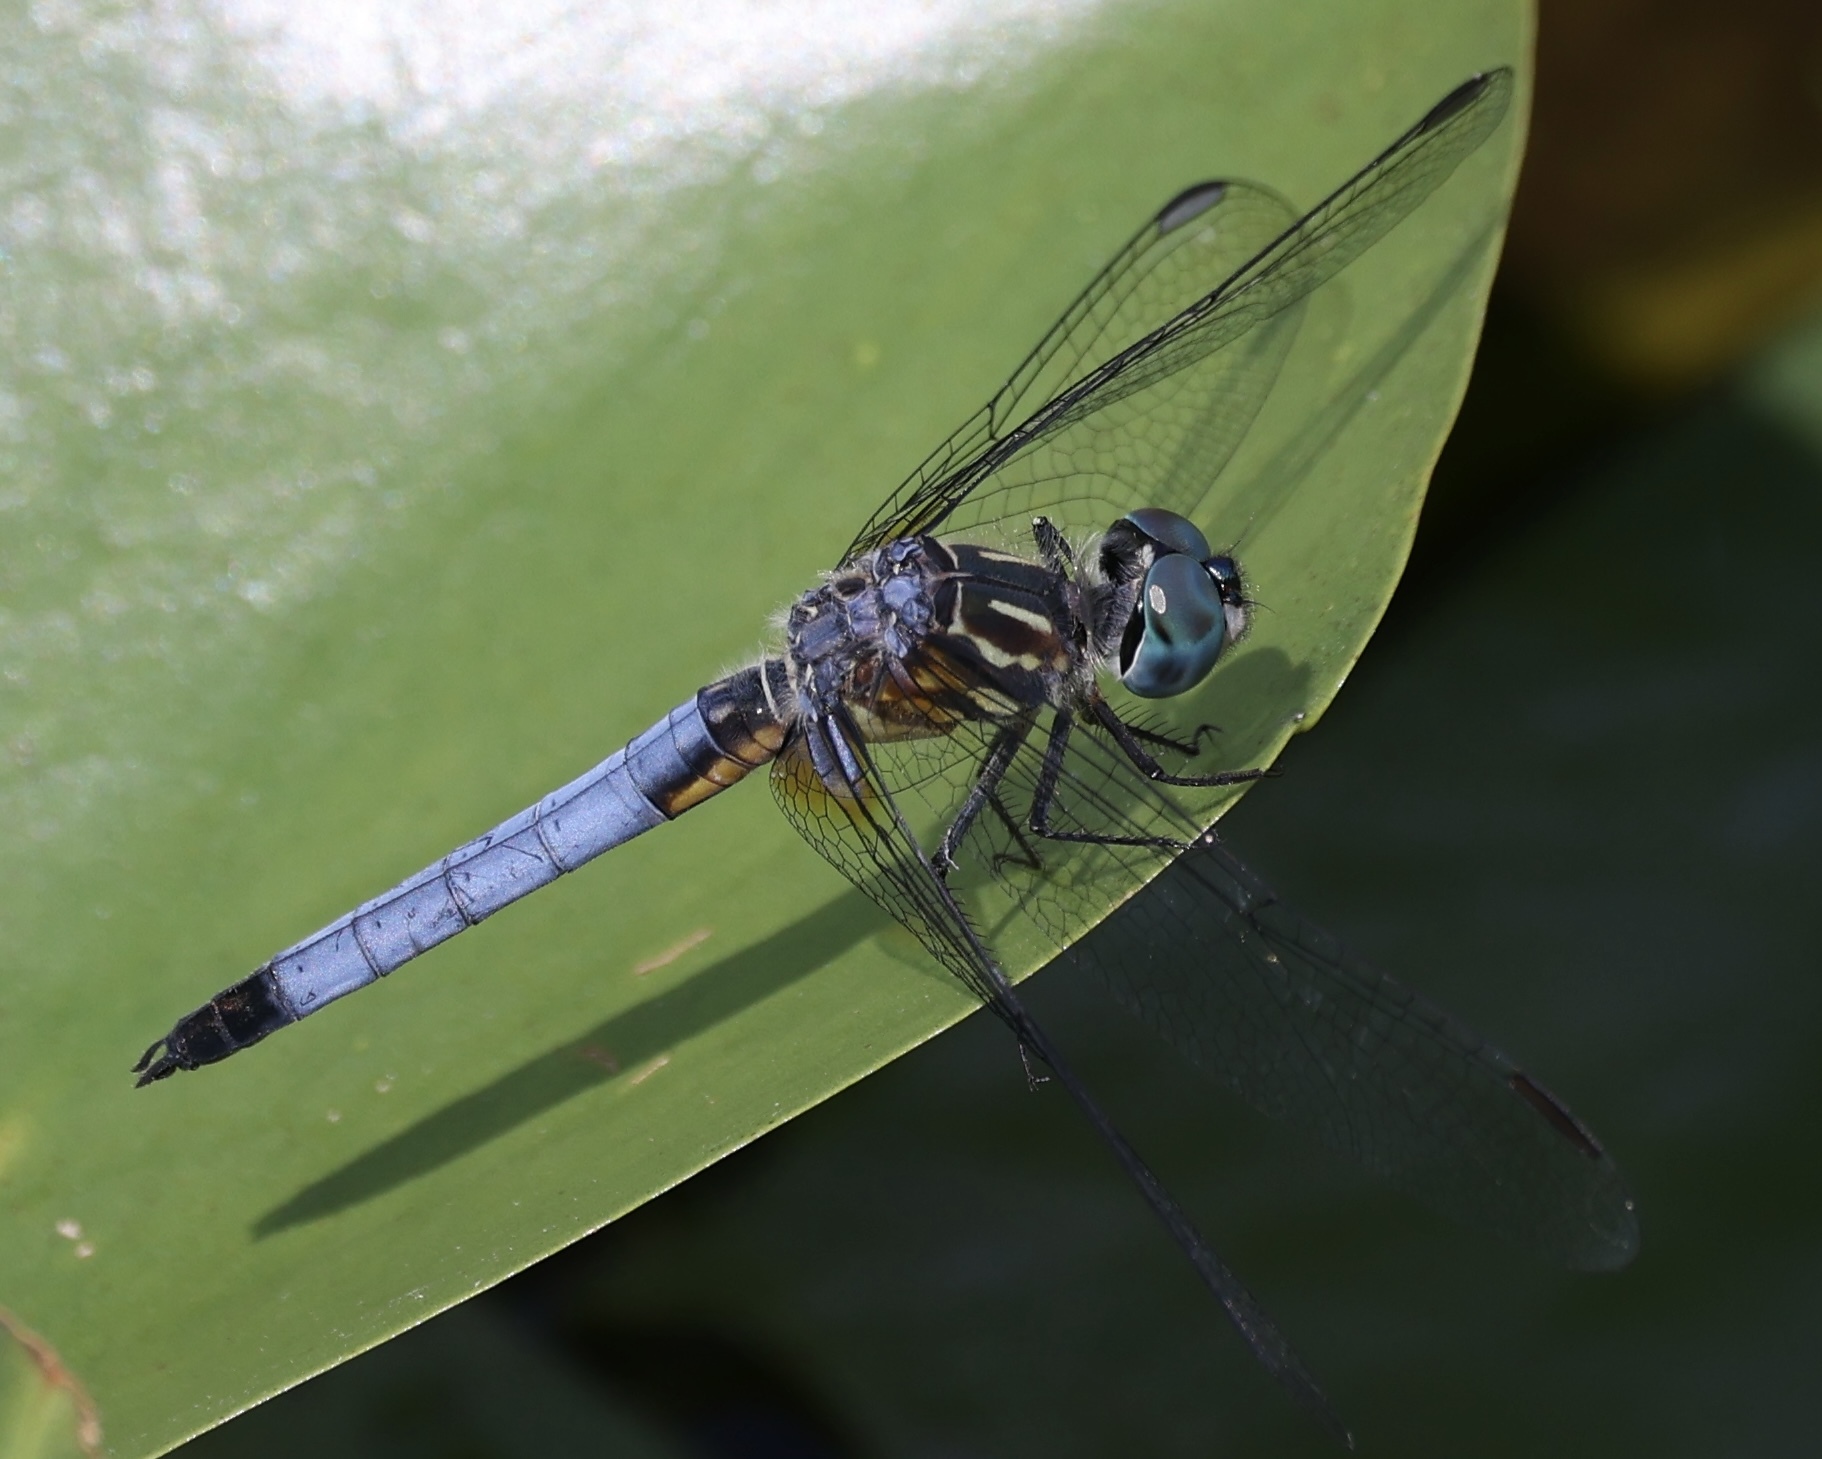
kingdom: Animalia
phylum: Arthropoda
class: Insecta
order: Odonata
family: Libellulidae
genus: Pachydiplax
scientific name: Pachydiplax longipennis
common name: Blue dasher
